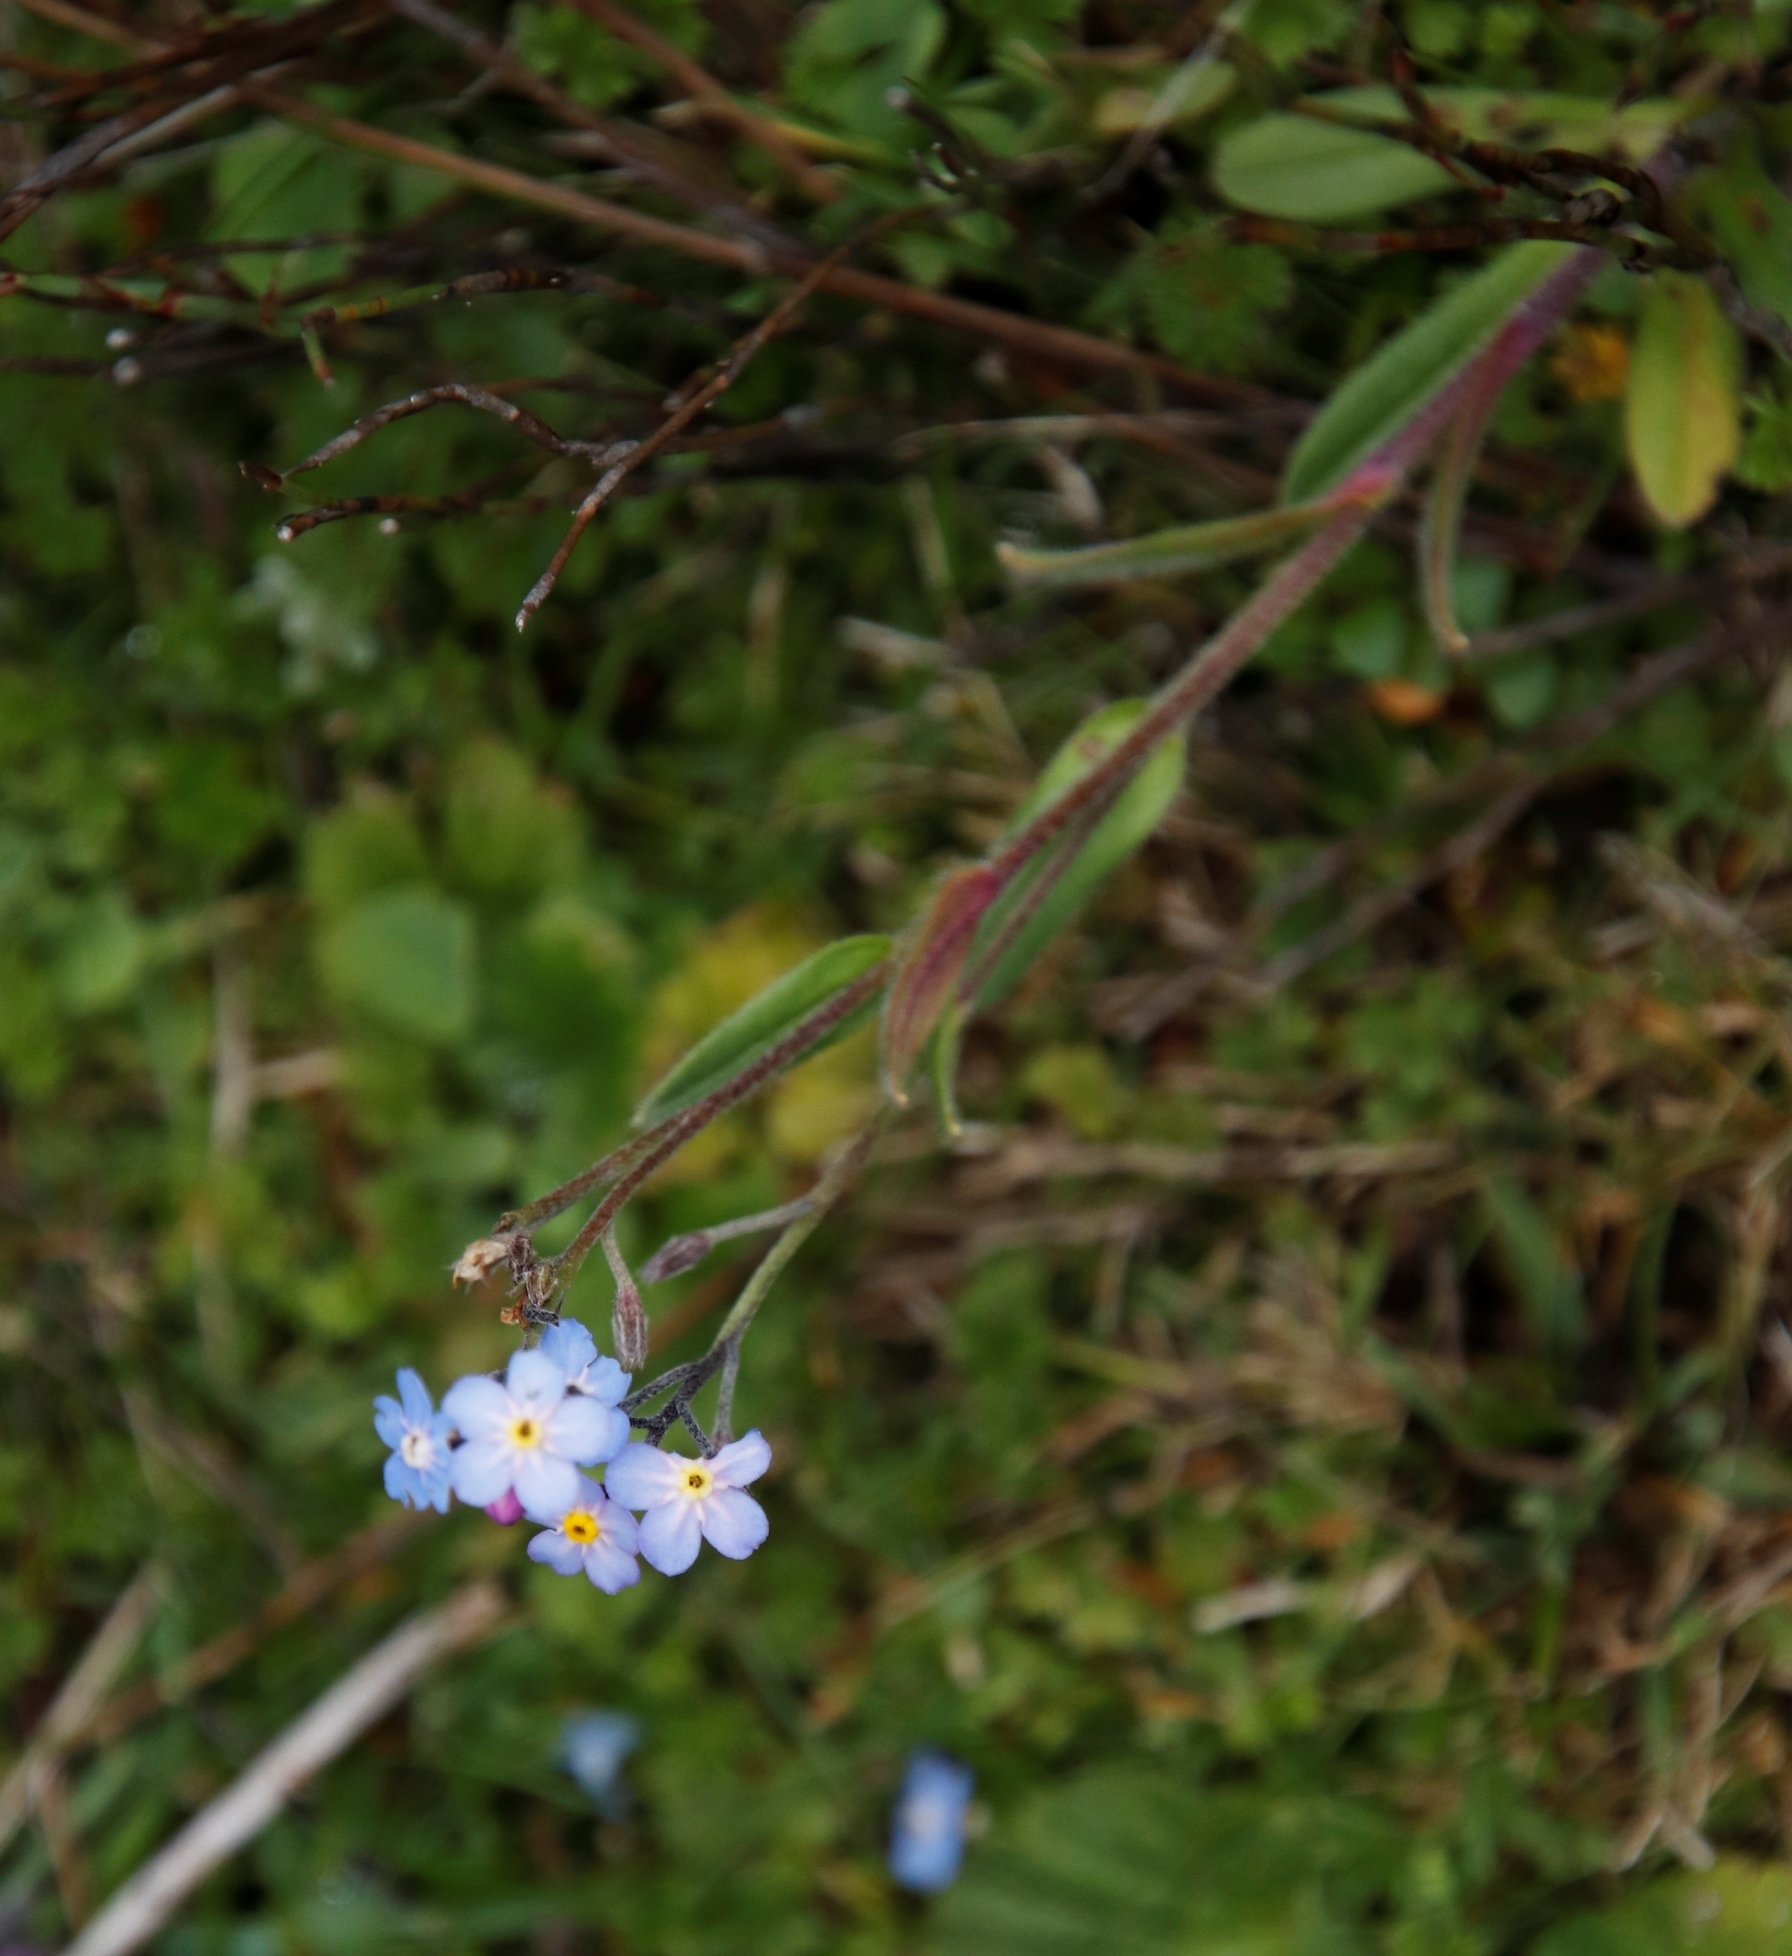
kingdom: Plantae
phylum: Tracheophyta
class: Magnoliopsida
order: Boraginales
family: Boraginaceae
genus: Myosotis
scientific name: Myosotis semiamplexicaulis
